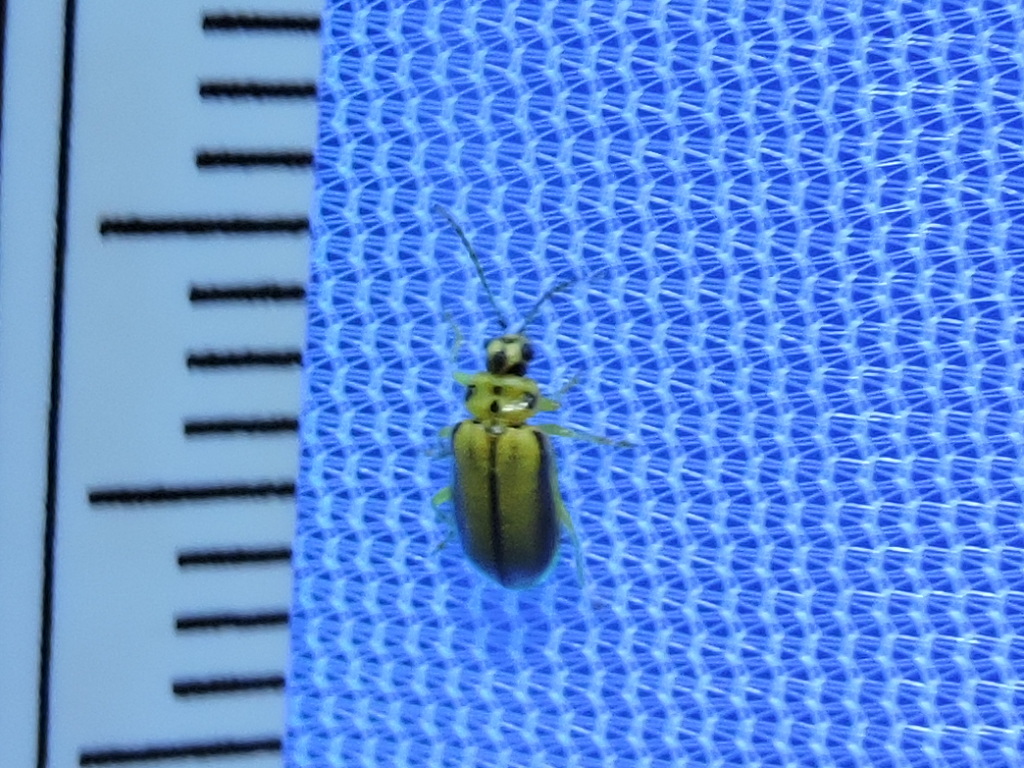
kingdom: Animalia
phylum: Arthropoda
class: Insecta
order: Coleoptera
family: Chrysomelidae
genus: Xanthogaleruca
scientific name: Xanthogaleruca luteola
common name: Elm leaf beetle
